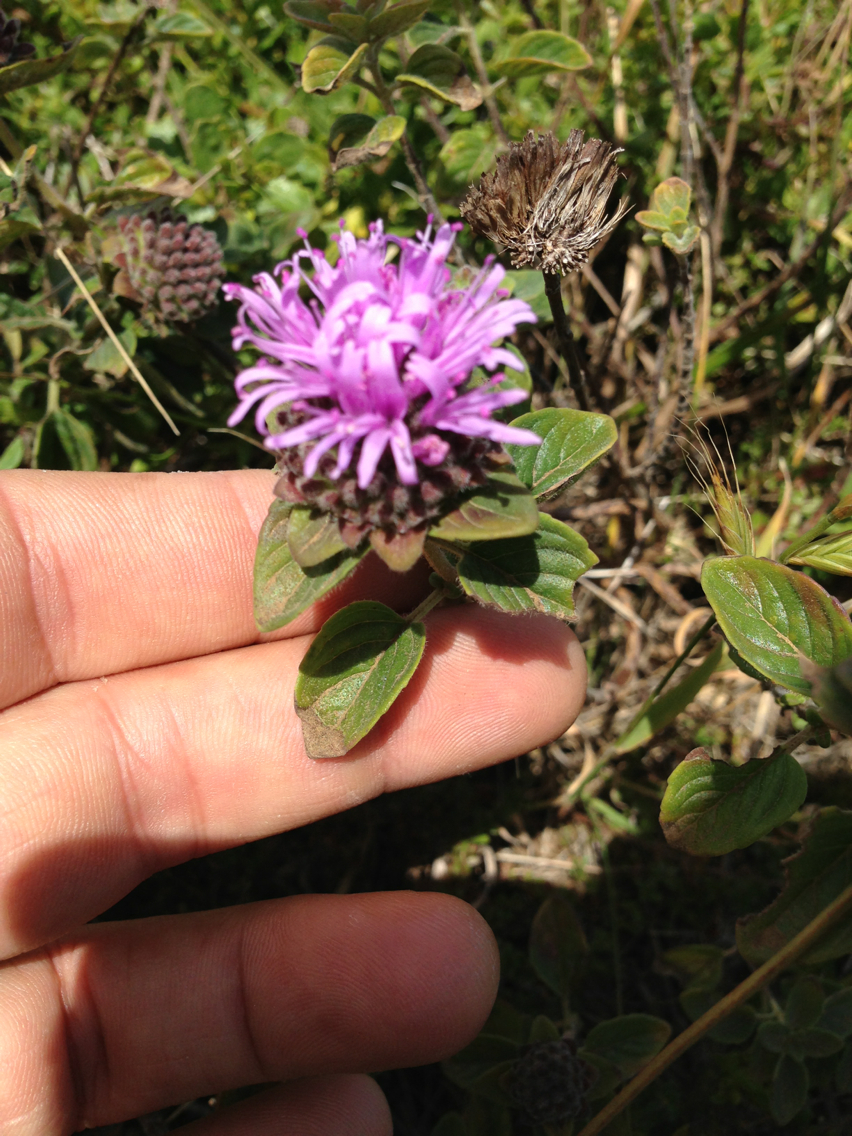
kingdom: Plantae
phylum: Tracheophyta
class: Magnoliopsida
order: Lamiales
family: Lamiaceae
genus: Monardella
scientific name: Monardella odoratissima
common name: Pacific monardella
